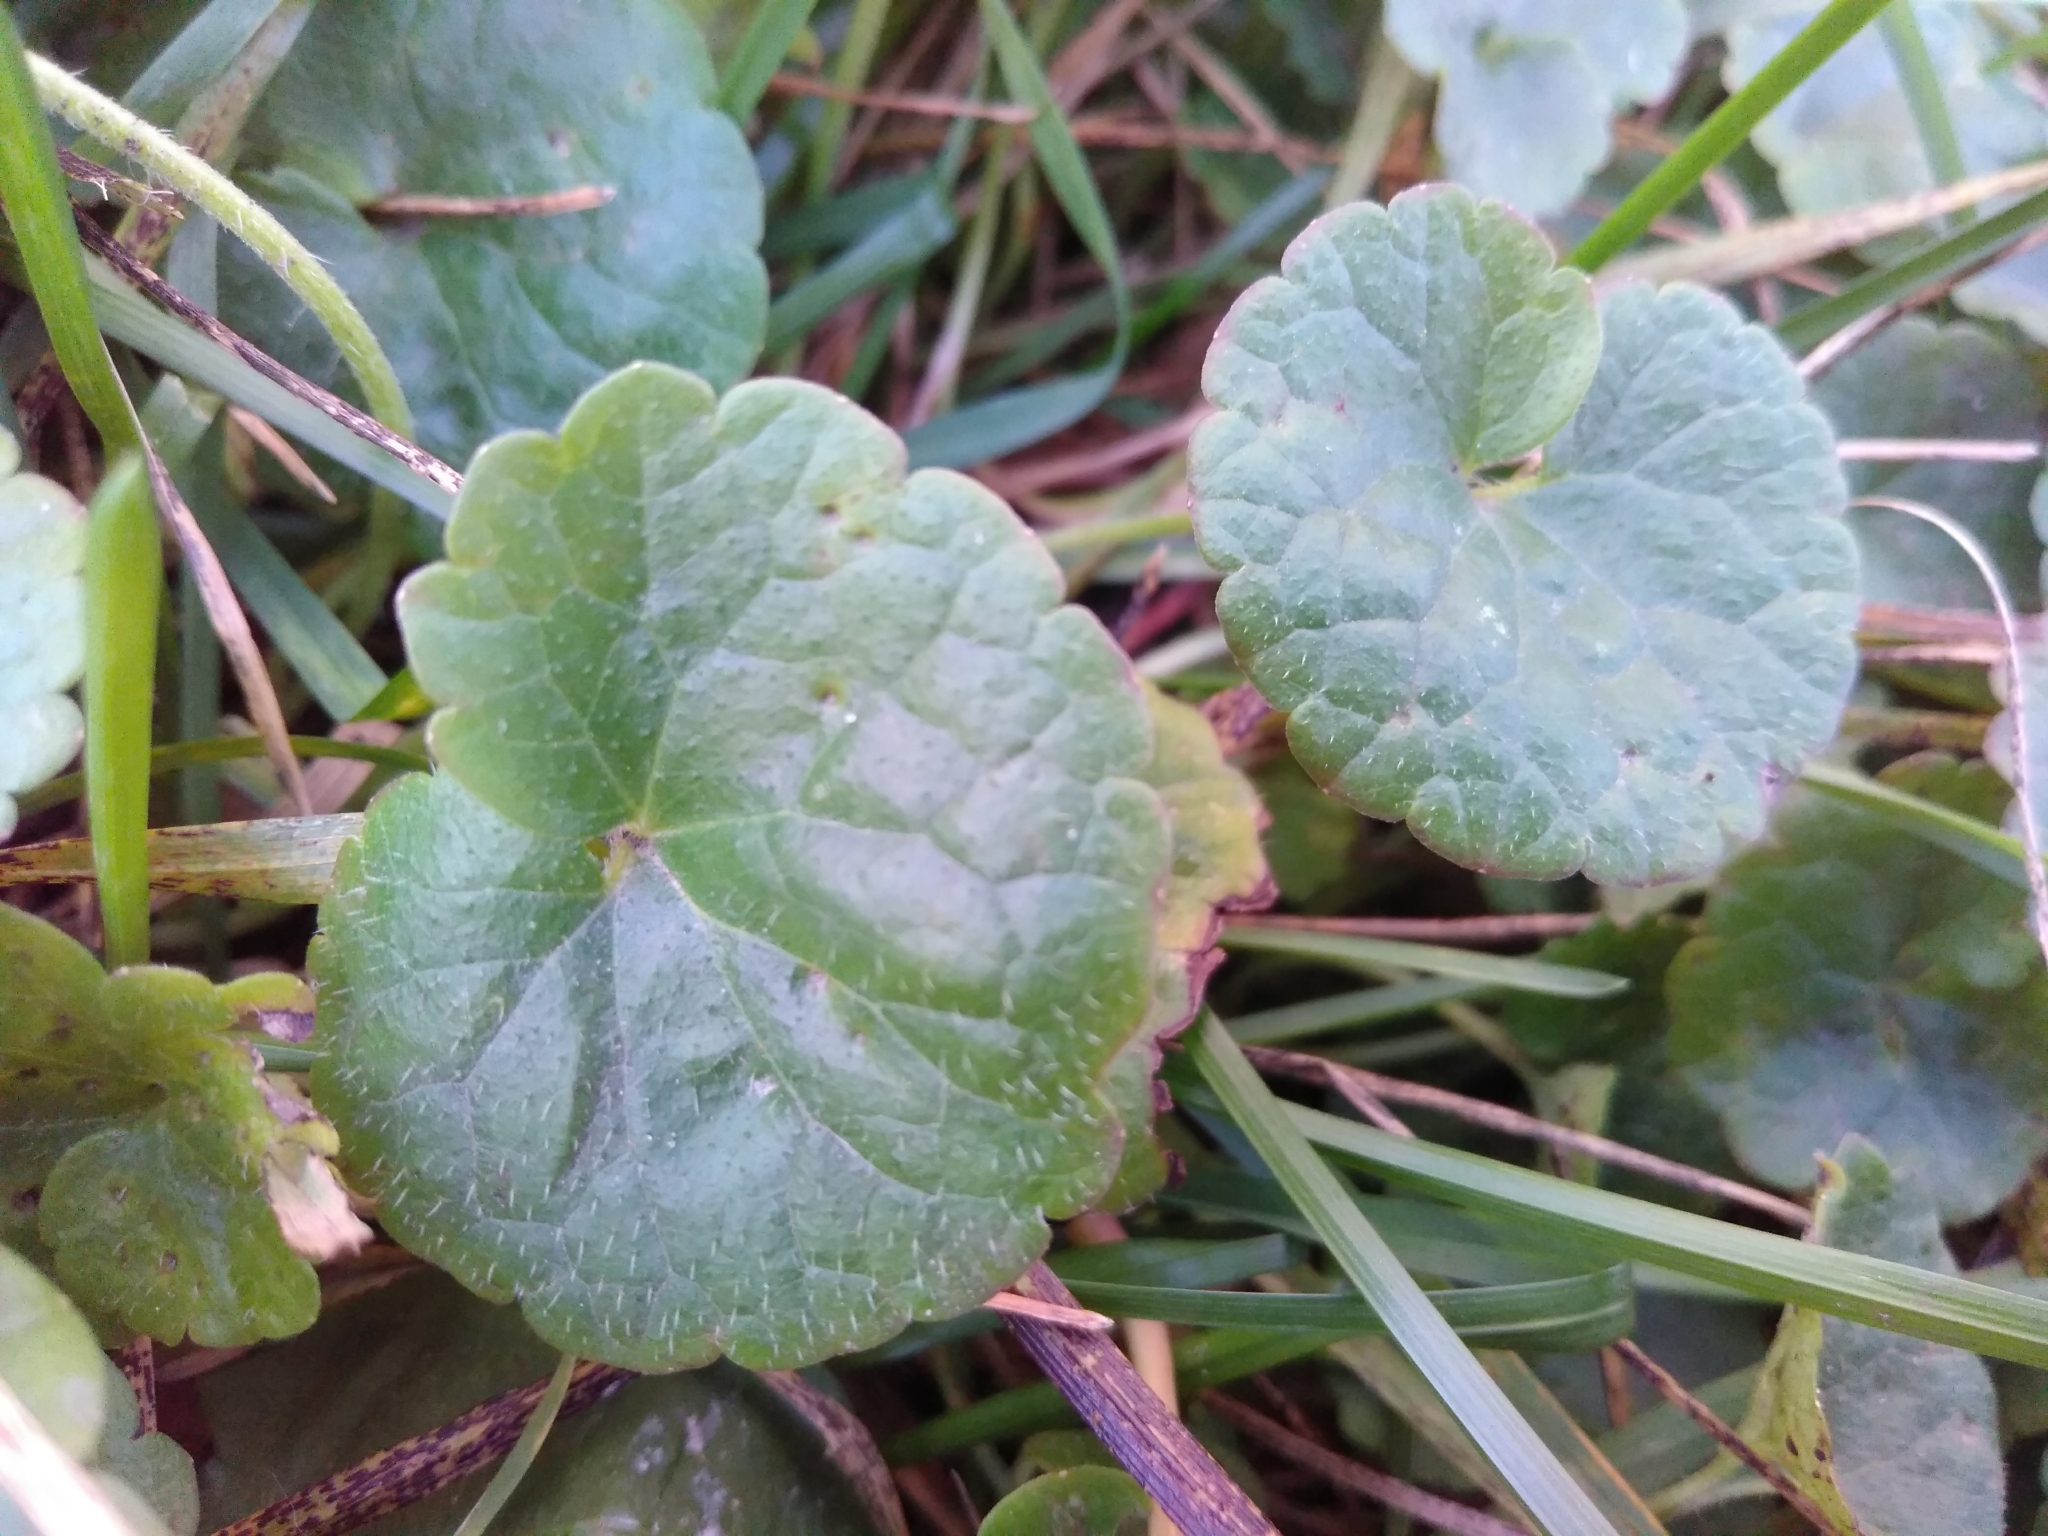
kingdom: Plantae
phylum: Tracheophyta
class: Magnoliopsida
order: Lamiales
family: Lamiaceae
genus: Glechoma
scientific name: Glechoma hederacea
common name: Ground ivy
